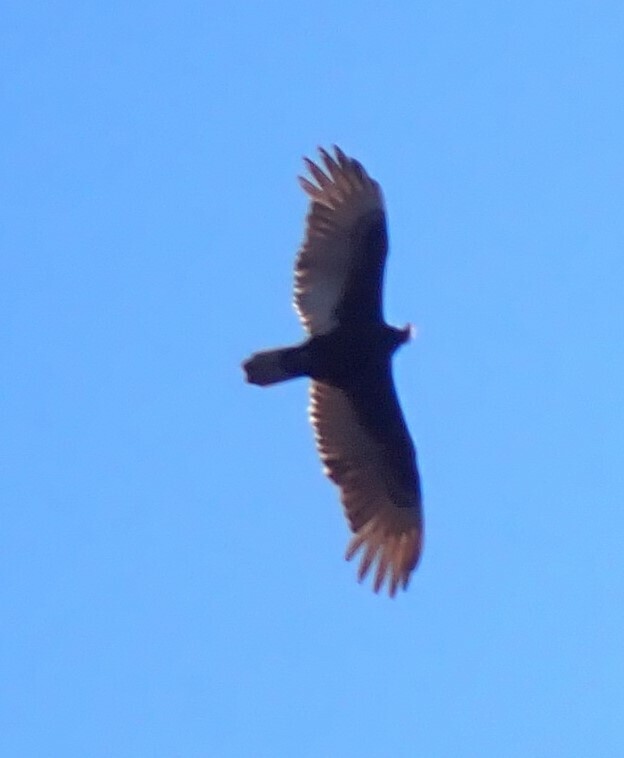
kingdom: Animalia
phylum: Chordata
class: Aves
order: Accipitriformes
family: Cathartidae
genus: Cathartes
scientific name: Cathartes aura
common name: Turkey vulture
